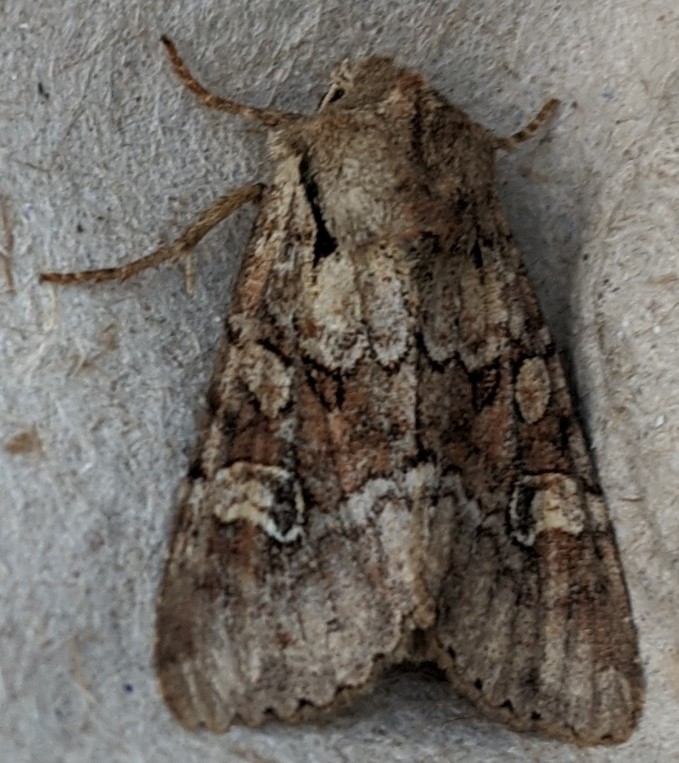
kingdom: Animalia
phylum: Arthropoda
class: Insecta
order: Lepidoptera
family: Noctuidae
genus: Apamea
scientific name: Apamea sordens
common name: Rustic shoulder-knot
